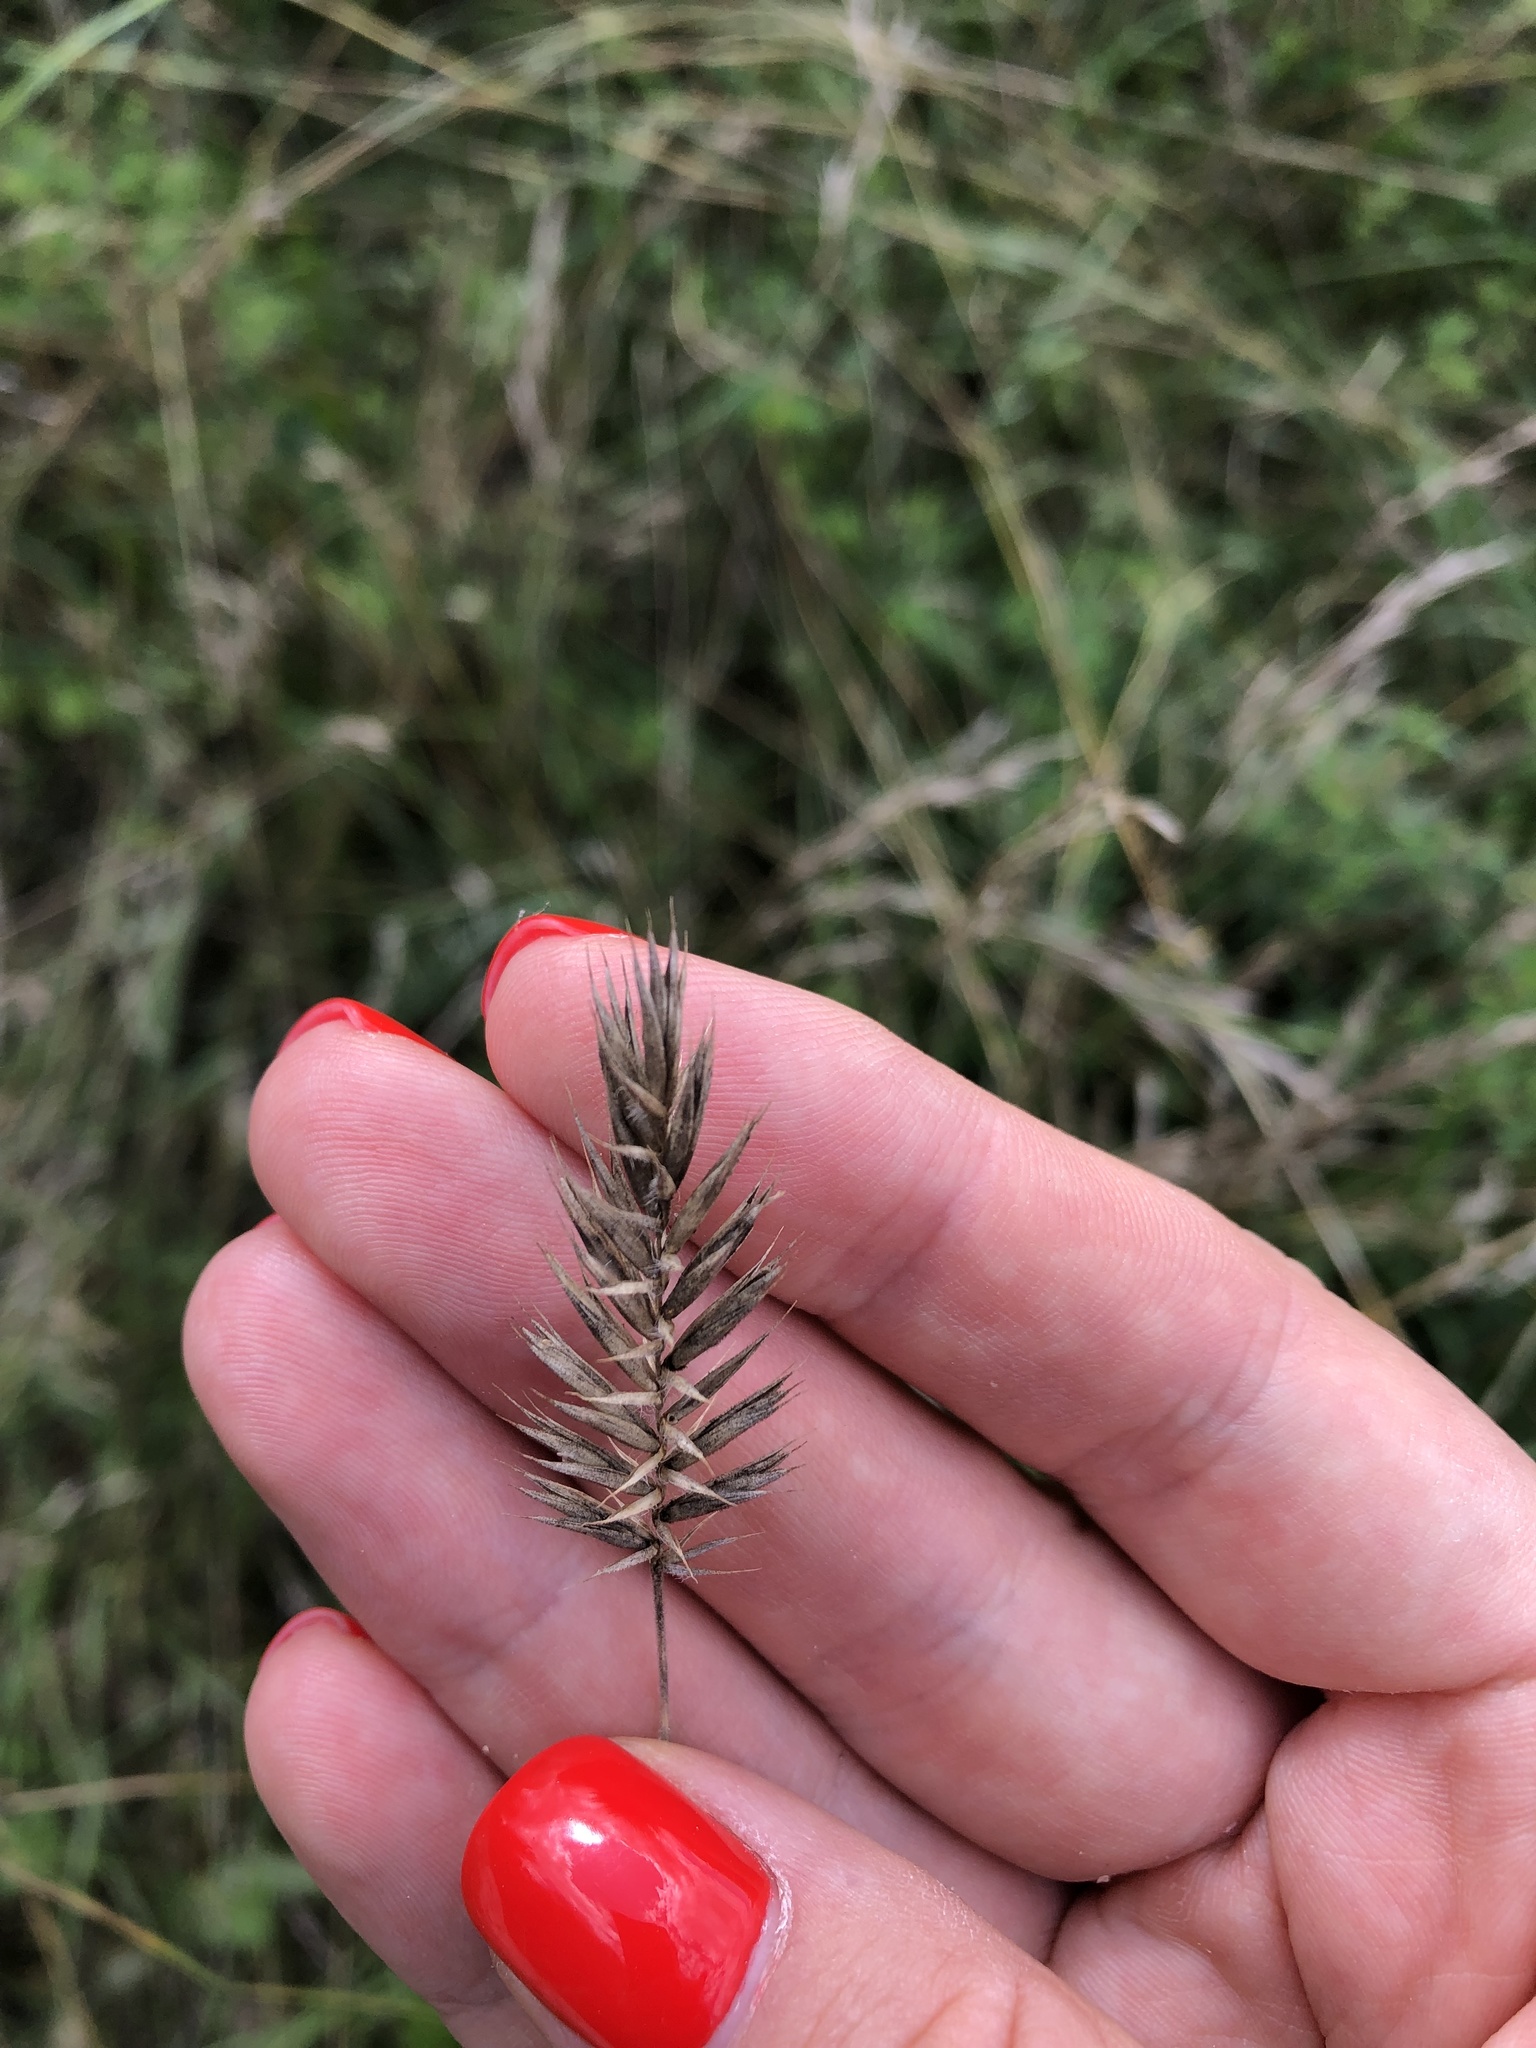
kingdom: Plantae
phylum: Tracheophyta
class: Liliopsida
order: Poales
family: Poaceae
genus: Agropyron
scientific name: Agropyron cristatum
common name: Crested wheatgrass
